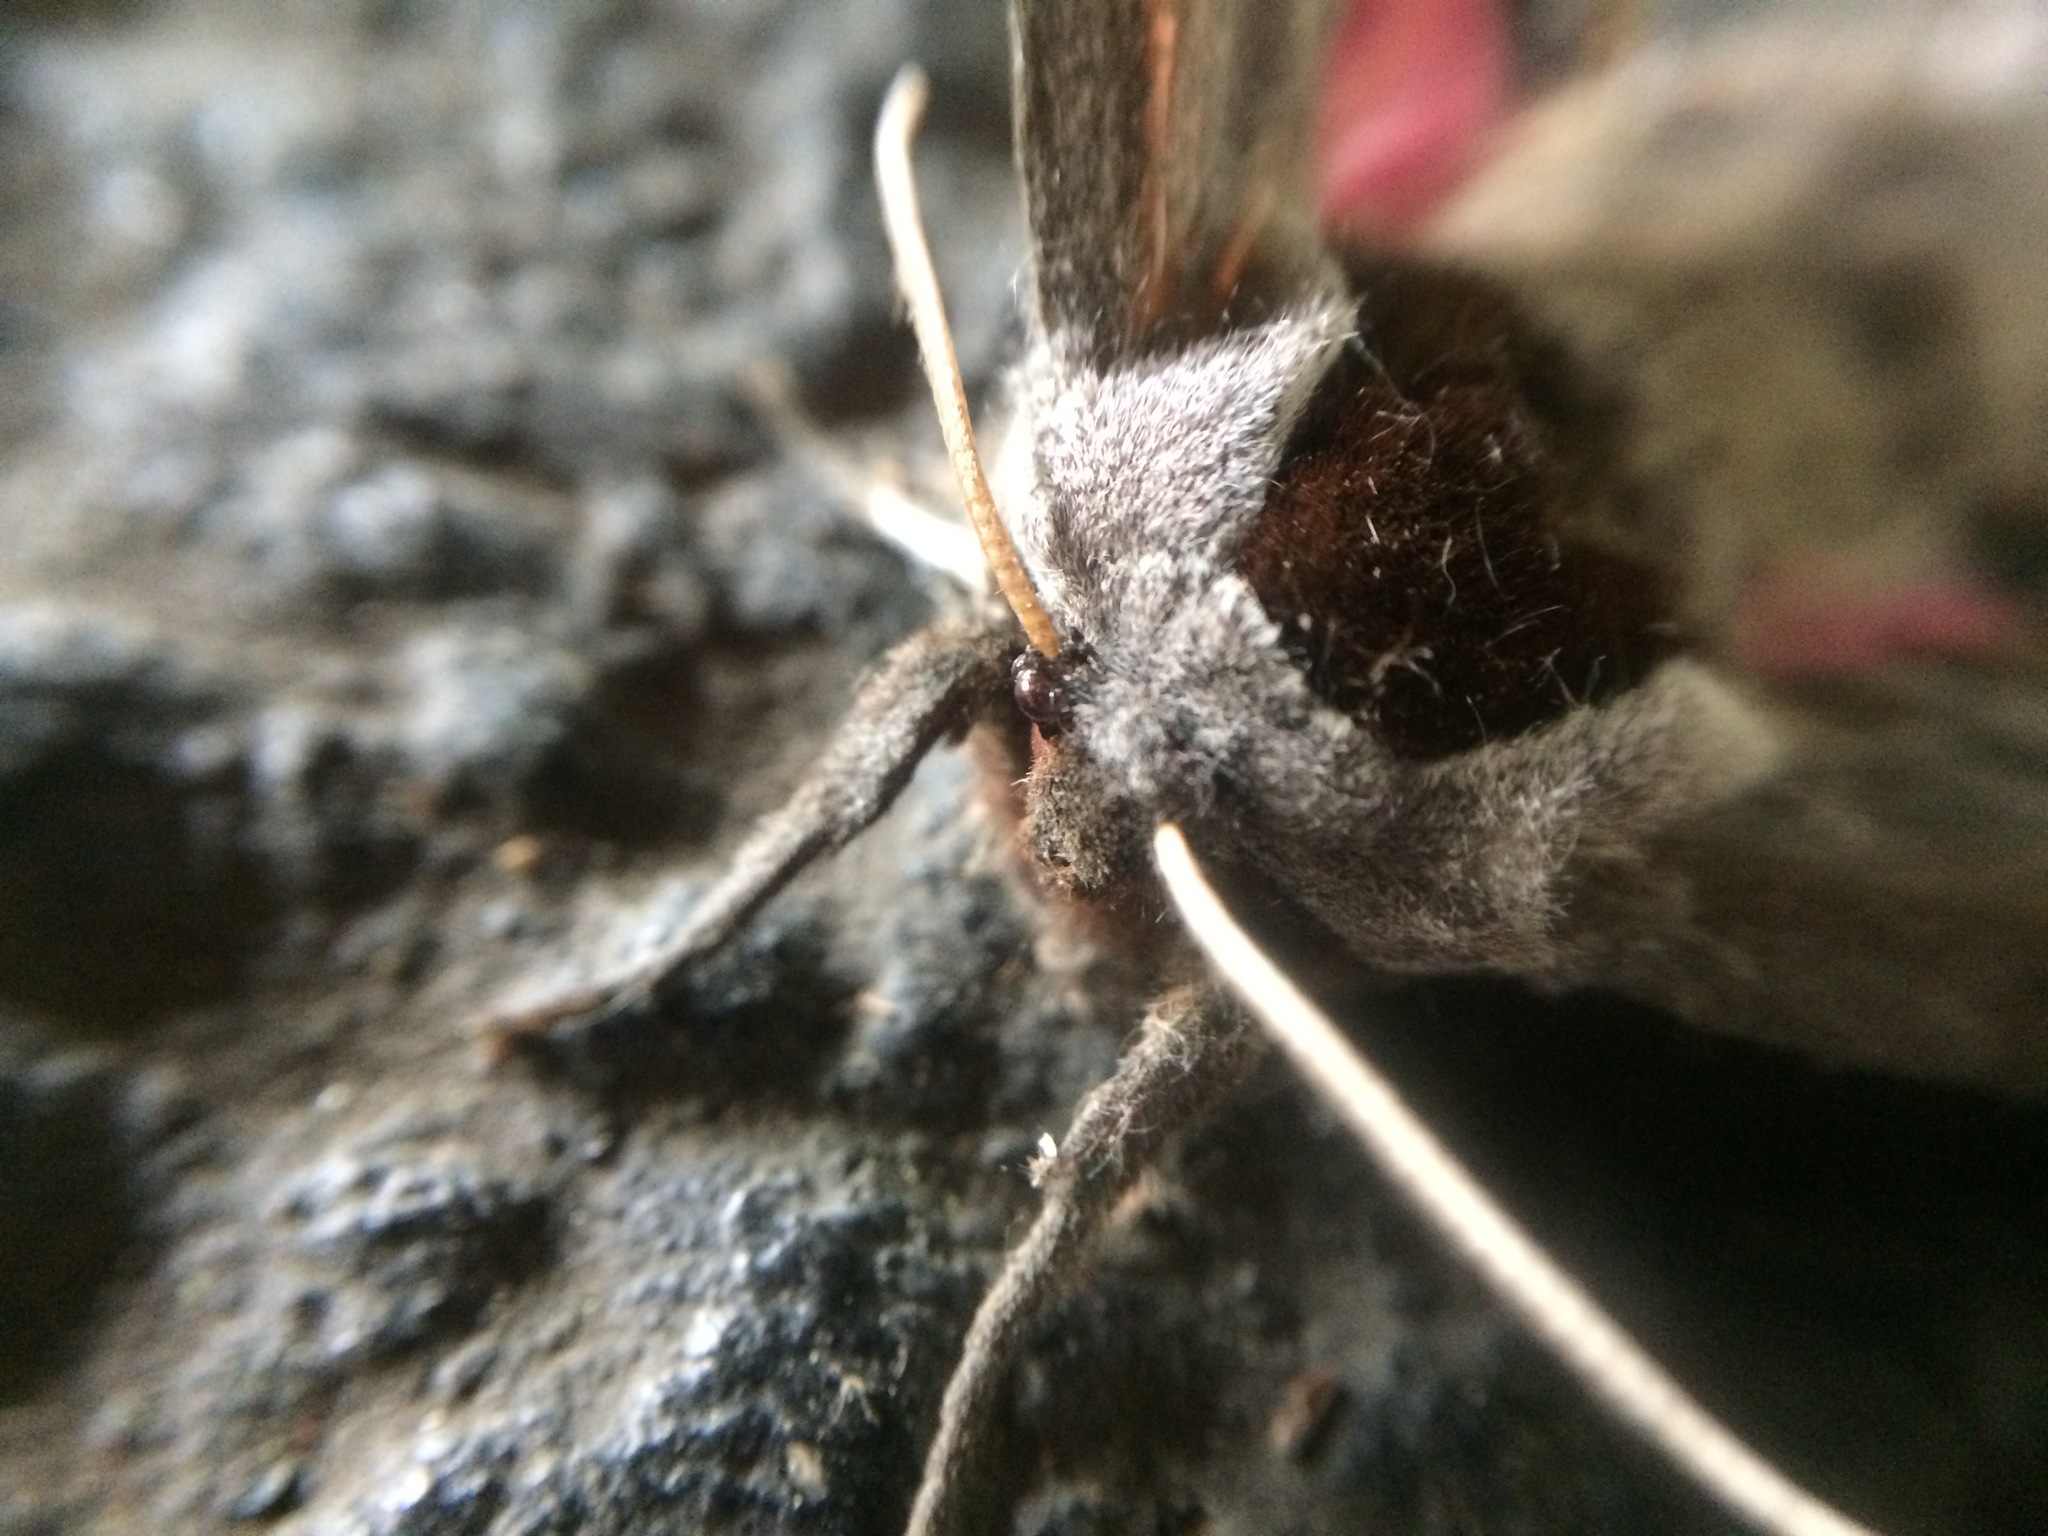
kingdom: Animalia
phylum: Arthropoda
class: Insecta
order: Lepidoptera
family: Sphingidae
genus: Smerinthus
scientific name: Smerinthus cerisyi
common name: Cerisy's sphinx moth
